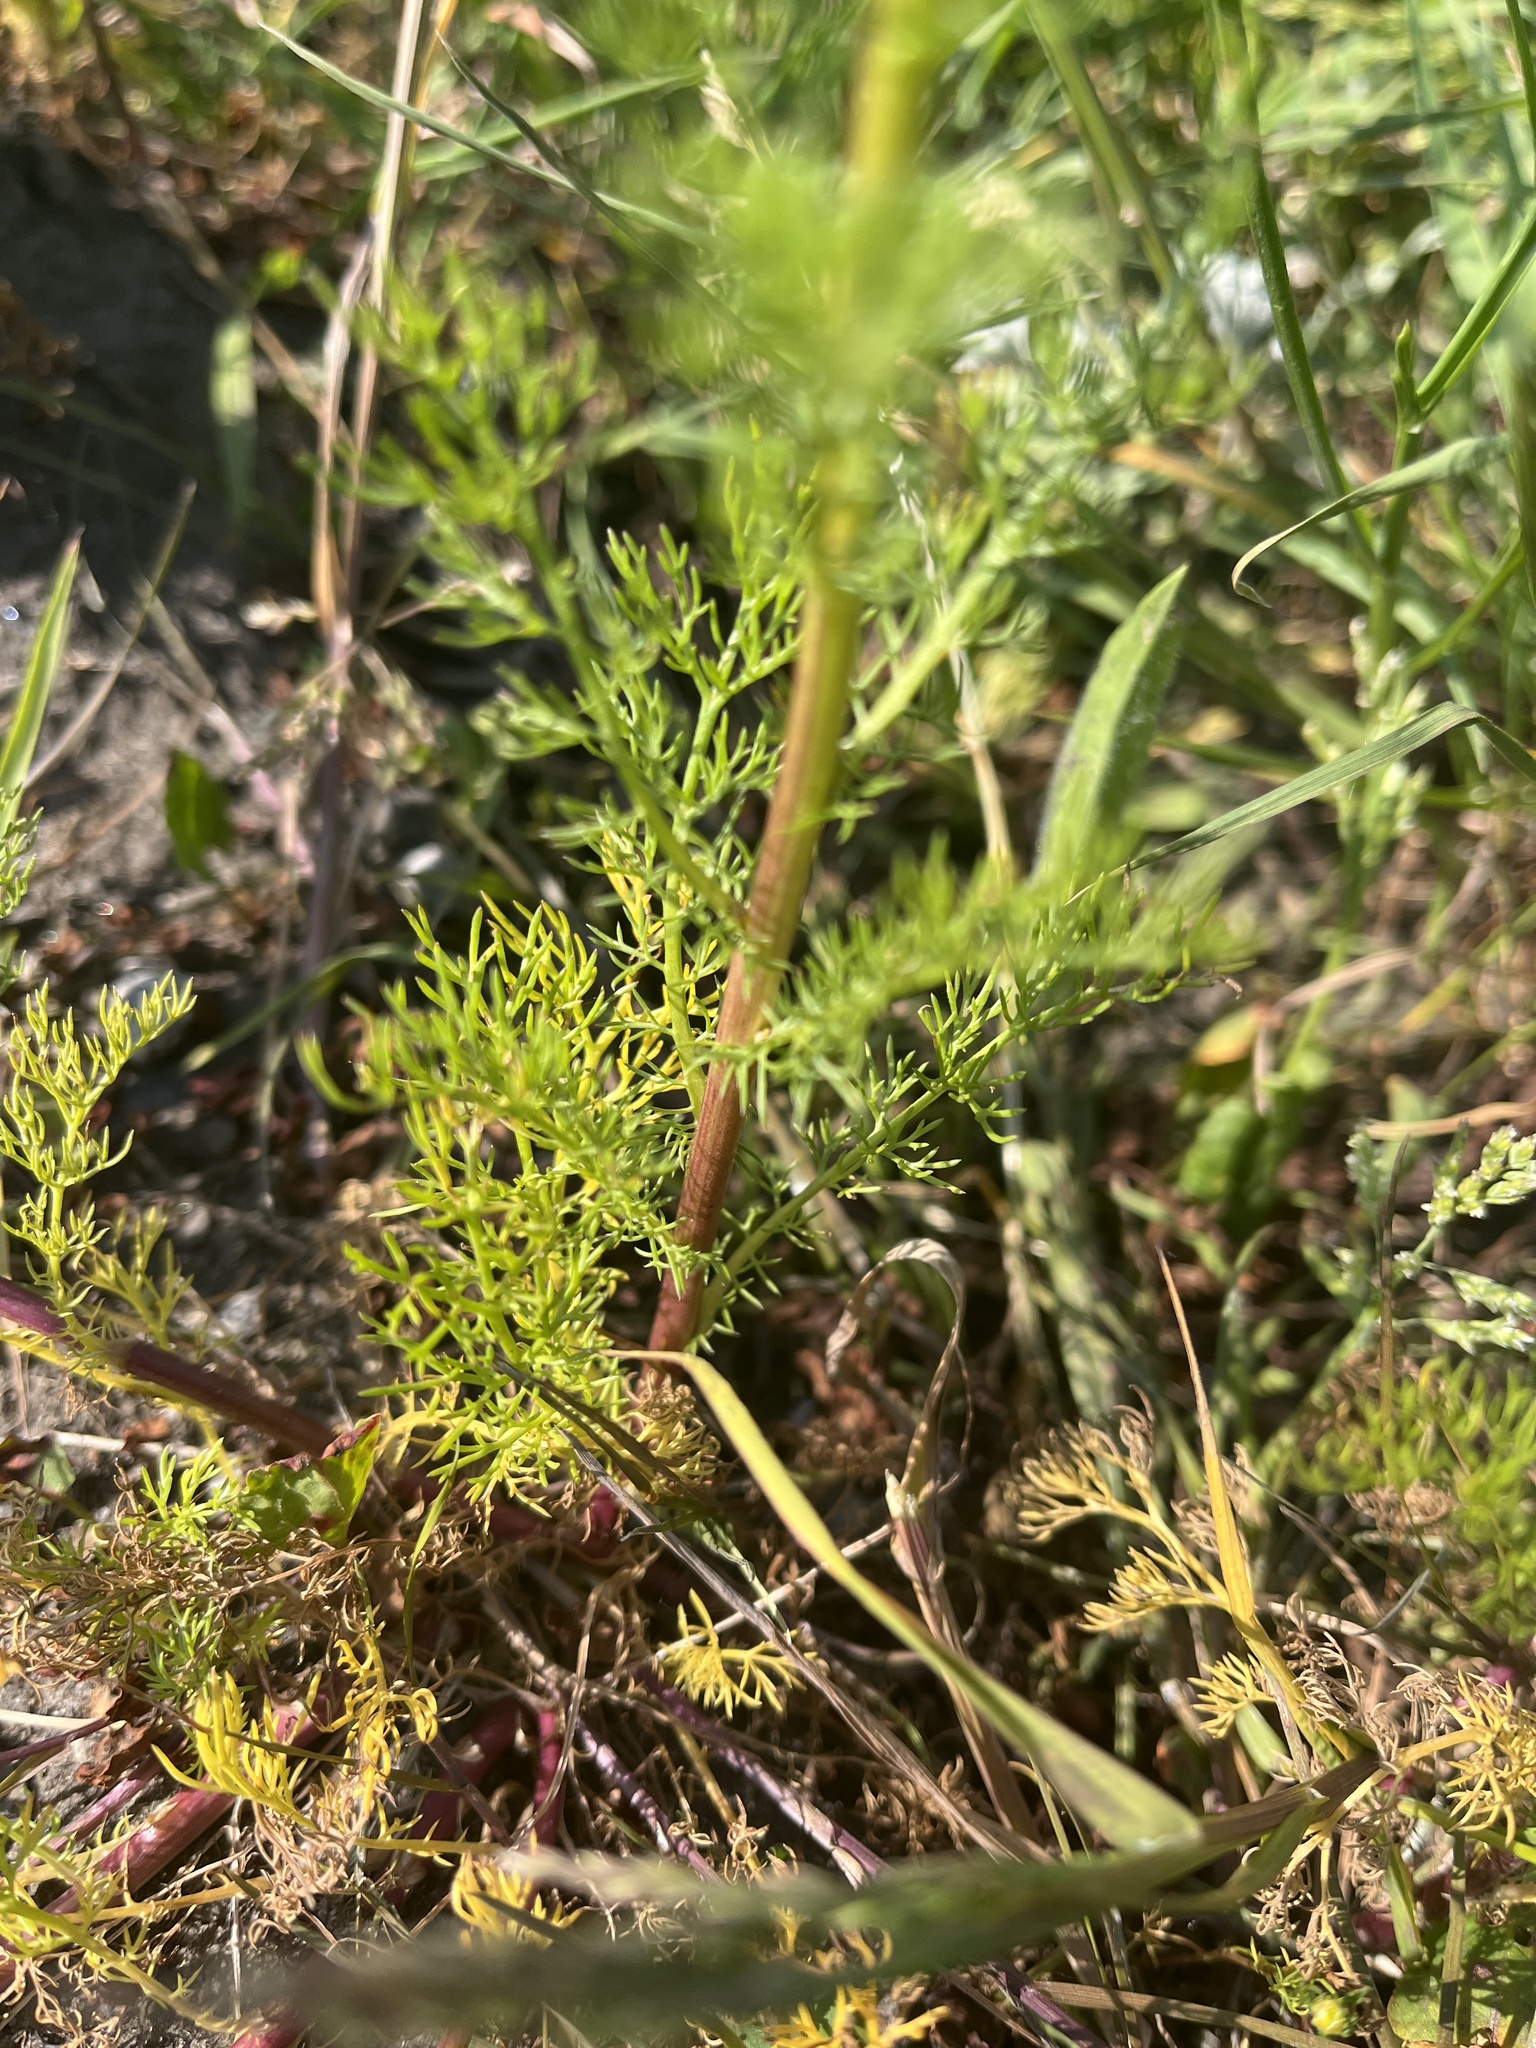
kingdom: Plantae
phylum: Tracheophyta
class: Magnoliopsida
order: Asterales
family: Asteraceae
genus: Matricaria
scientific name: Matricaria chamomilla
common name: Scented mayweed
